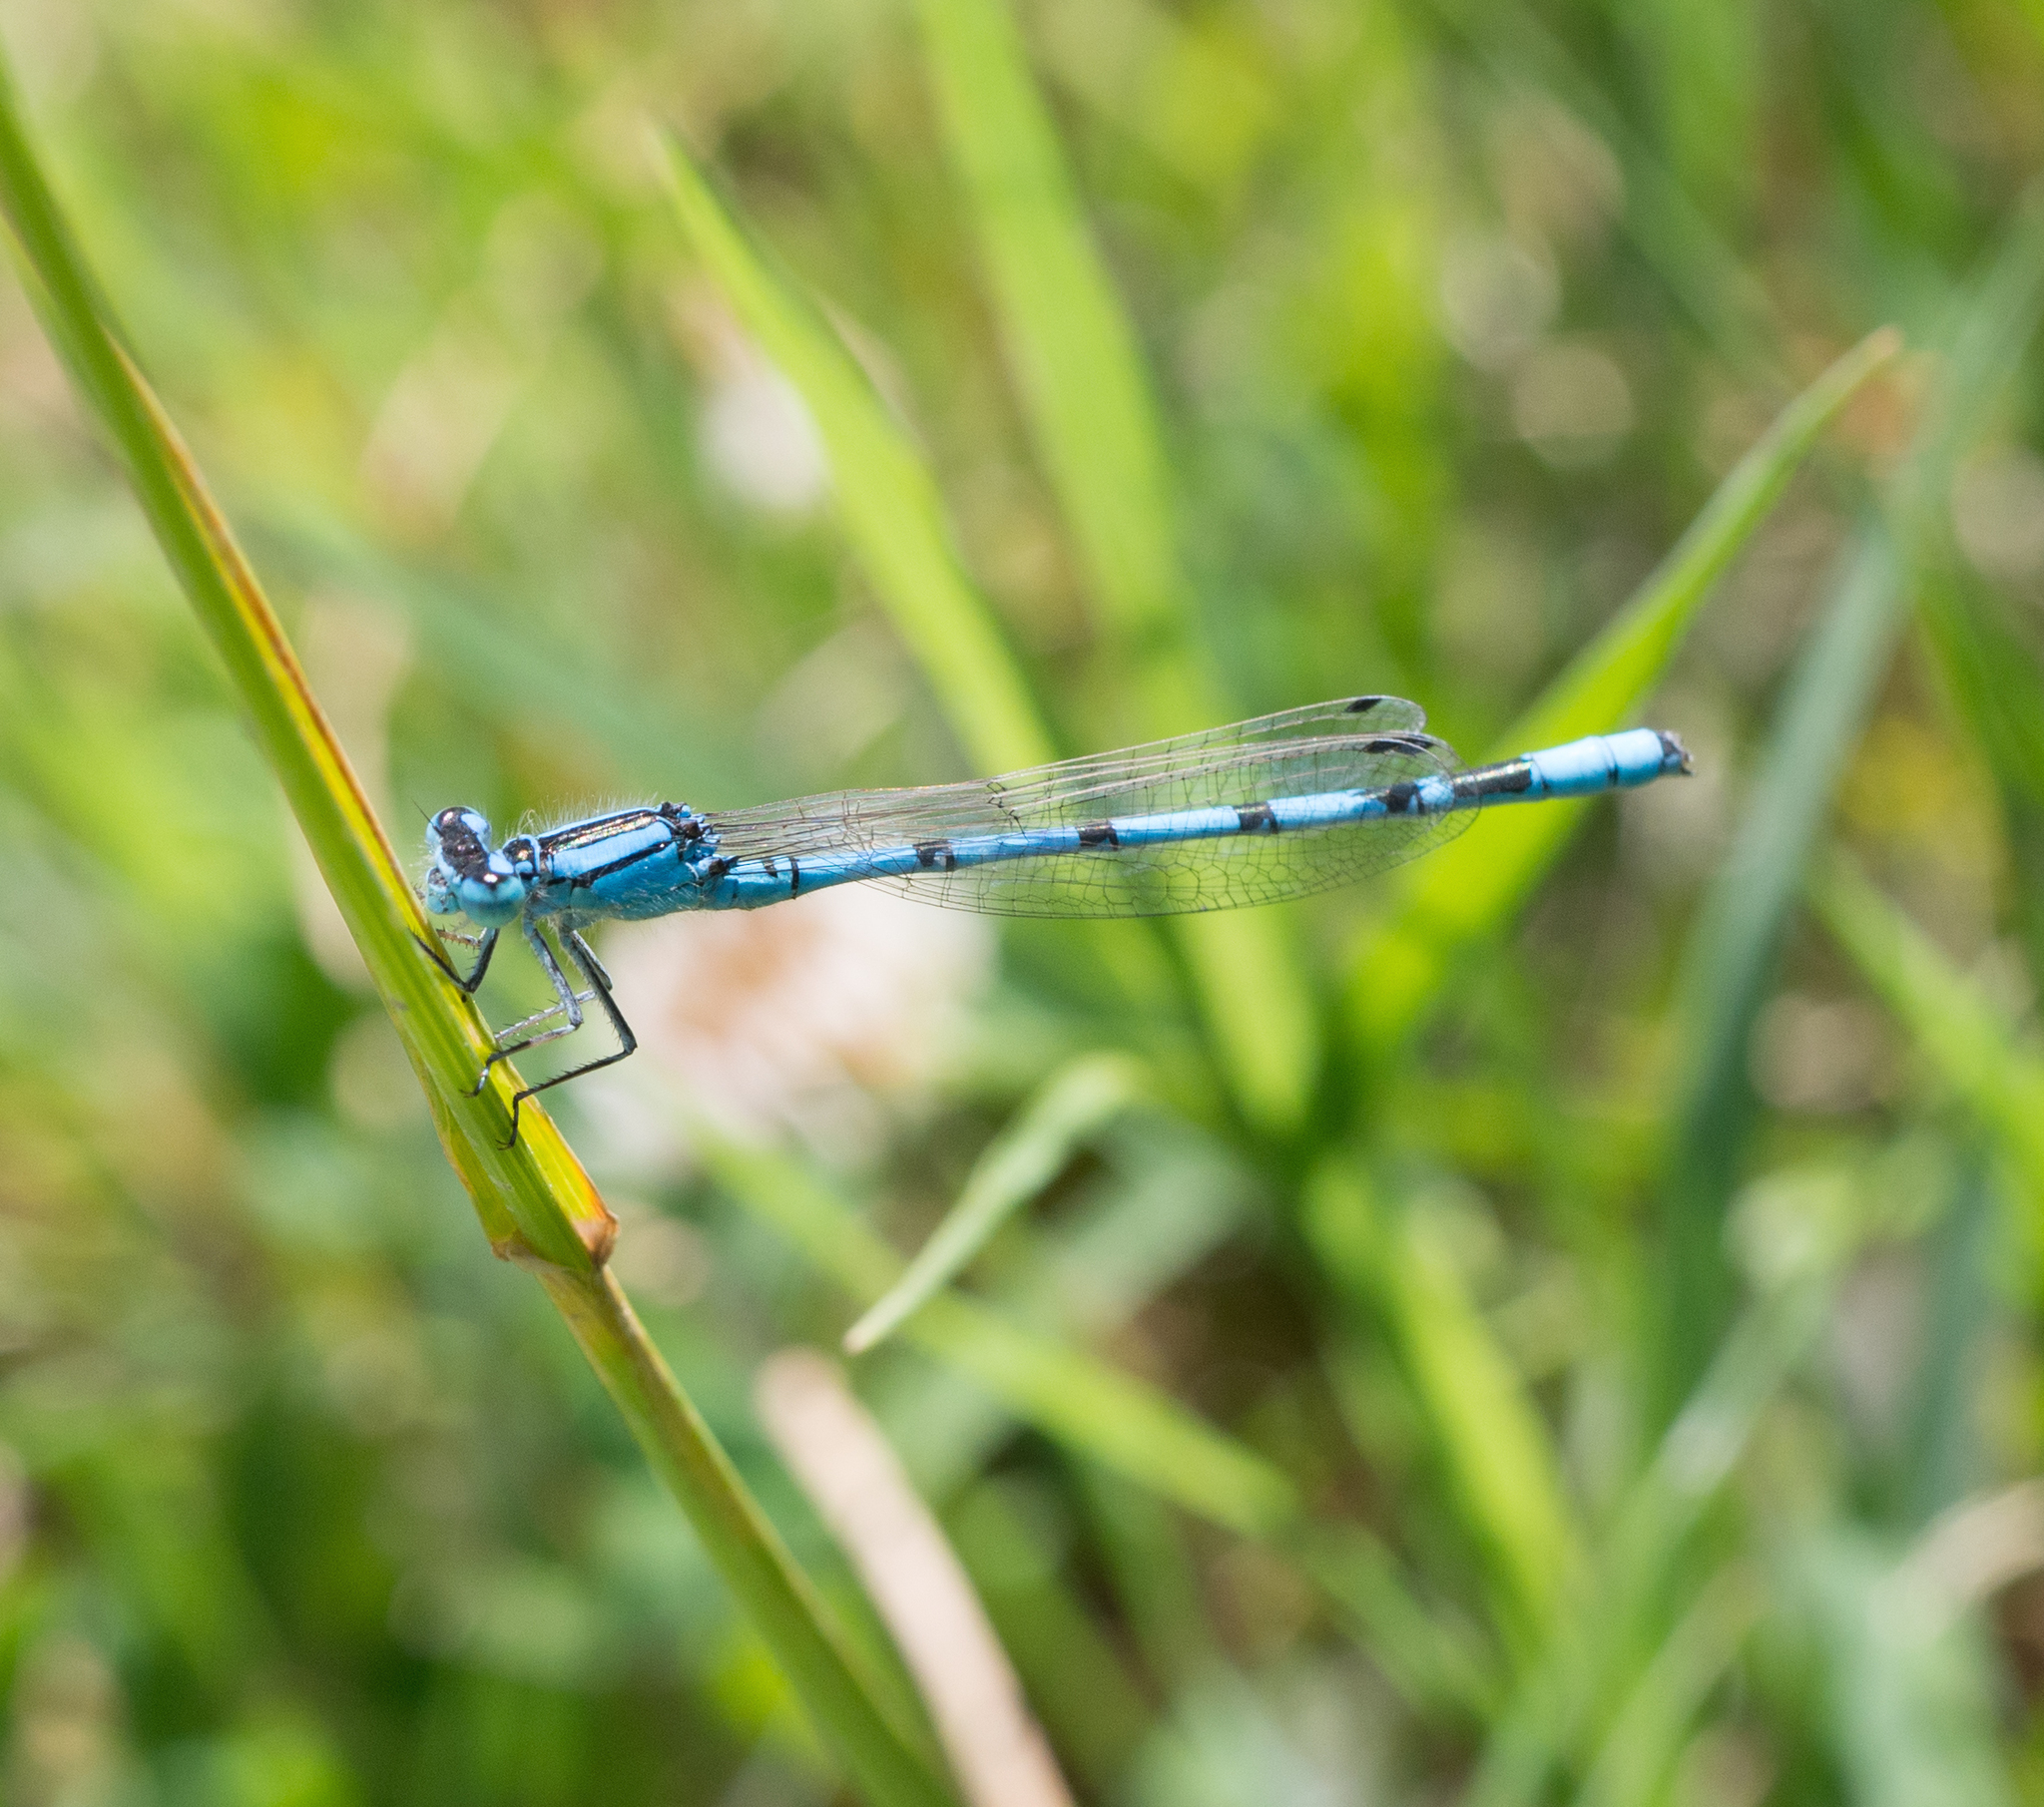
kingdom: Animalia
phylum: Arthropoda
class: Insecta
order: Odonata
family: Coenagrionidae
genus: Enallagma
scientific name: Enallagma cyathigerum
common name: Common blue damselfly
